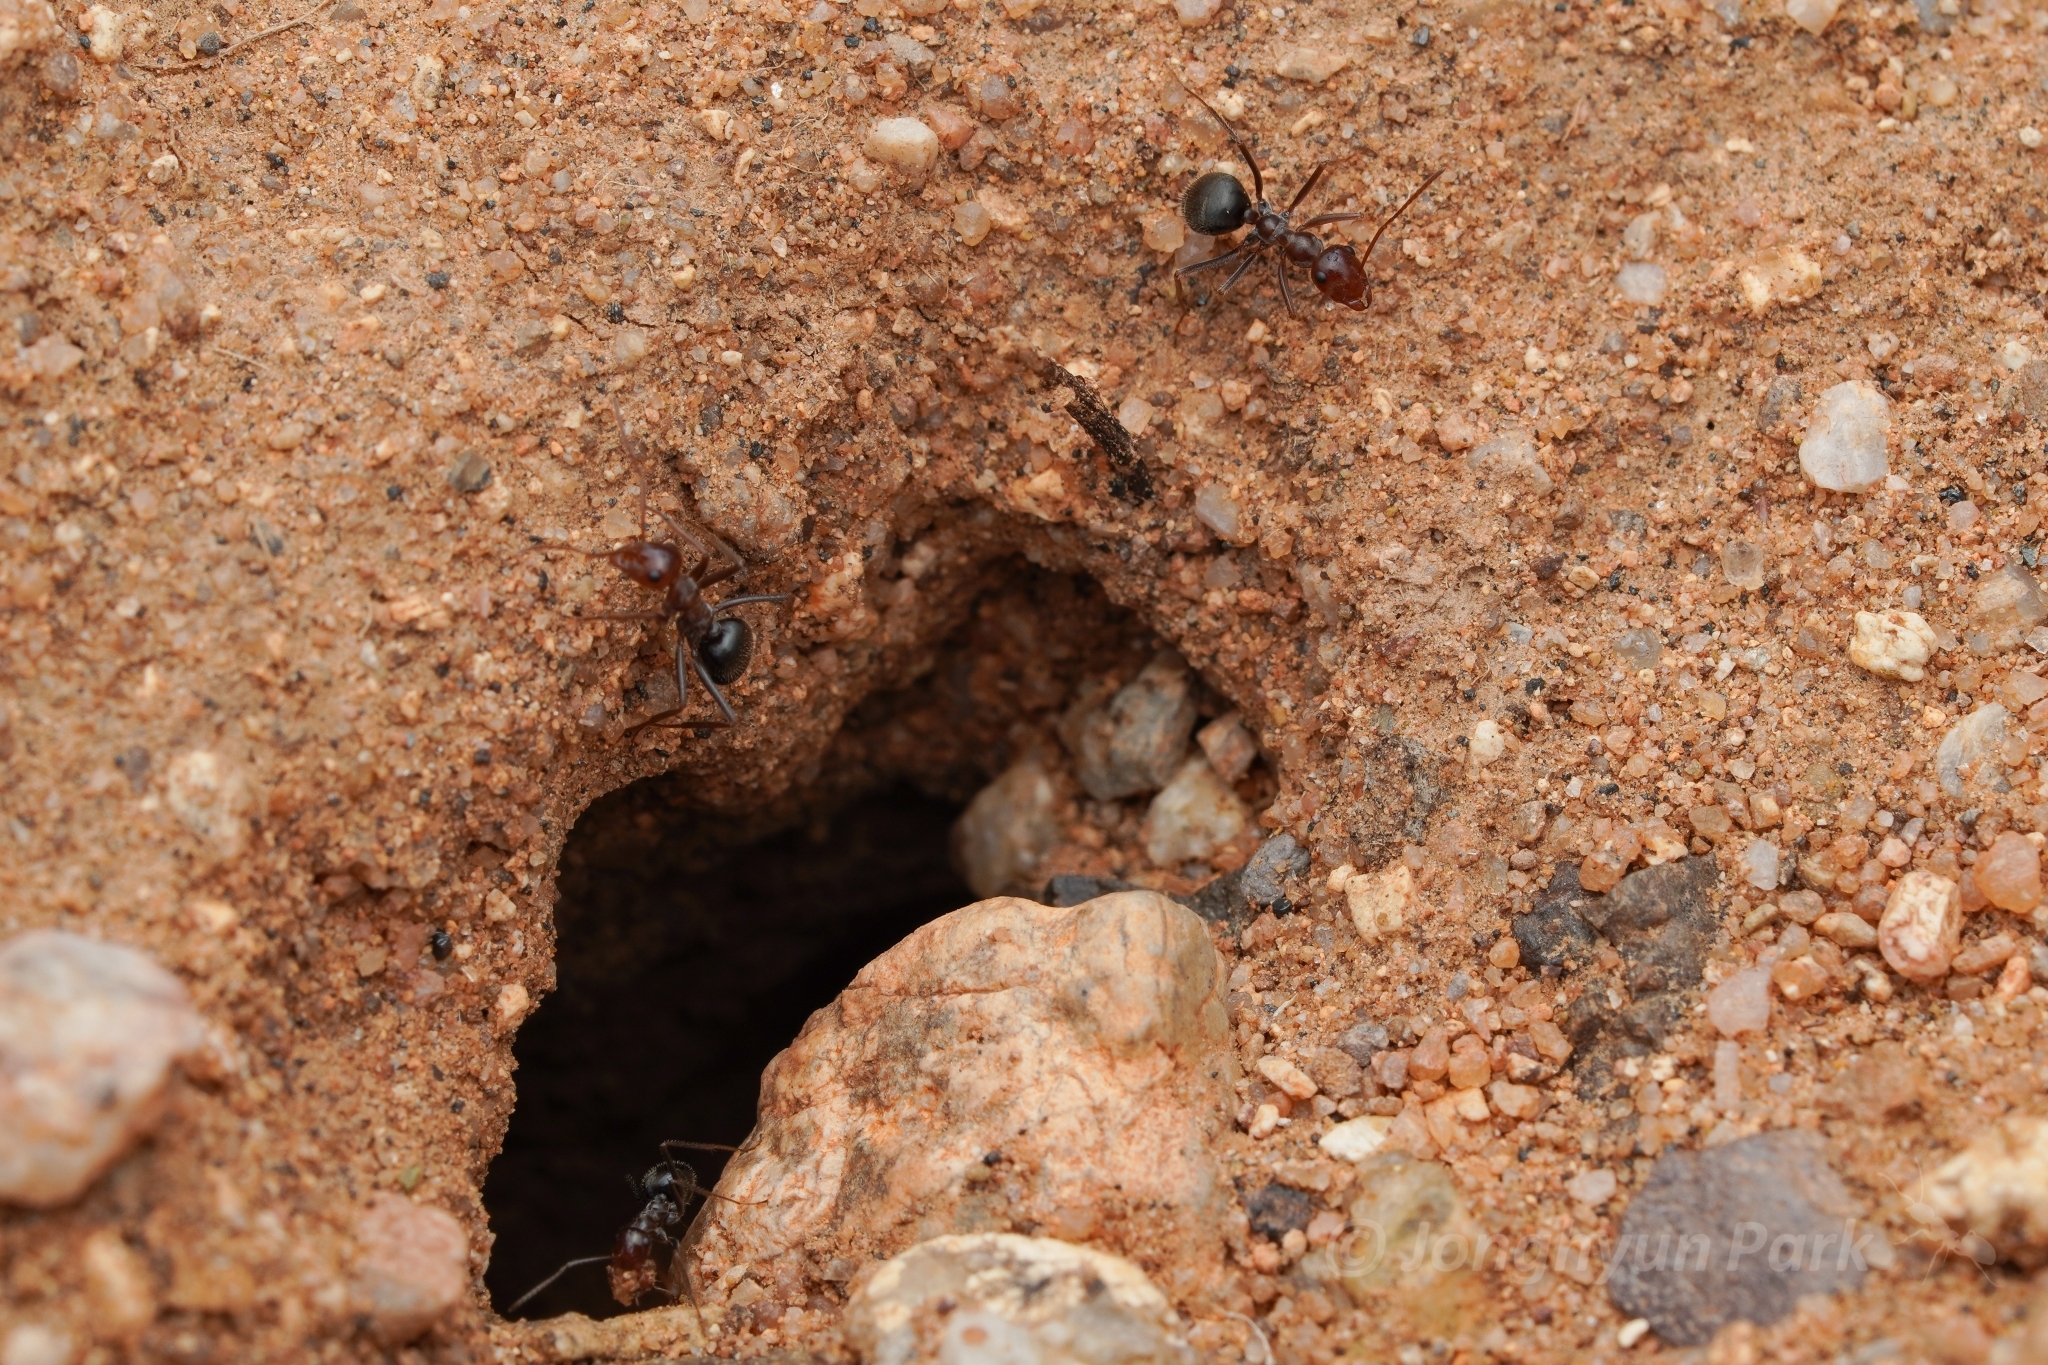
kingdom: Animalia
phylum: Arthropoda
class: Insecta
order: Hymenoptera
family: Formicidae
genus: Myrmecocystus
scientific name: Myrmecocystus mimicus
